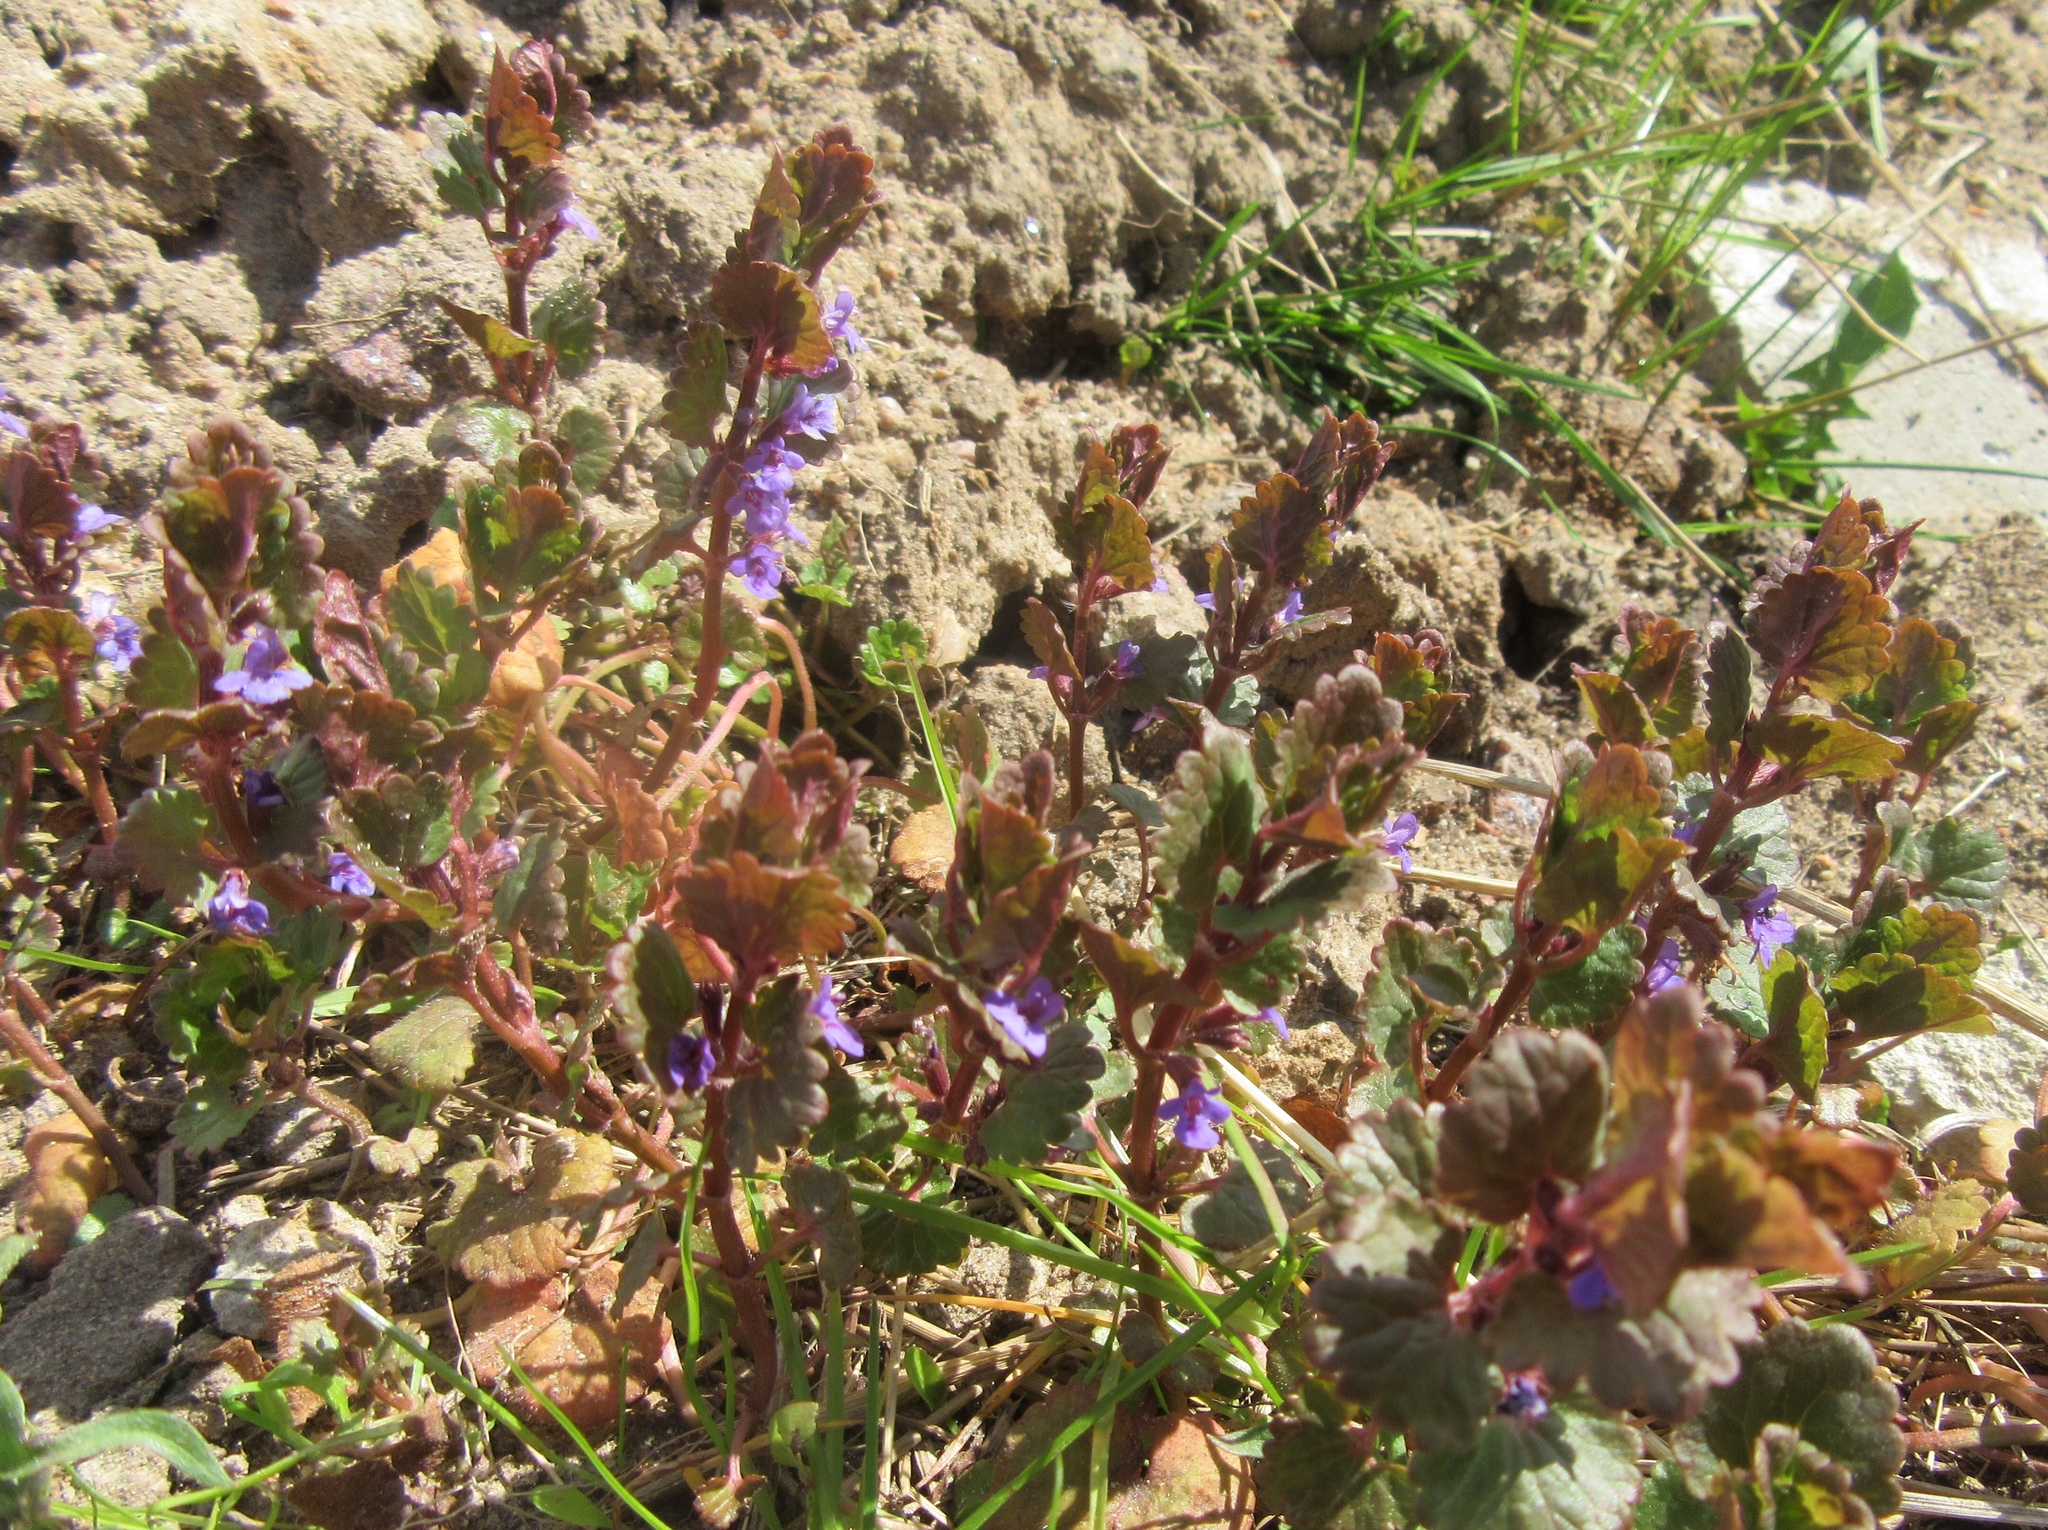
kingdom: Plantae
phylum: Tracheophyta
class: Magnoliopsida
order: Lamiales
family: Lamiaceae
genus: Glechoma
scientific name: Glechoma hederacea
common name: Ground ivy
